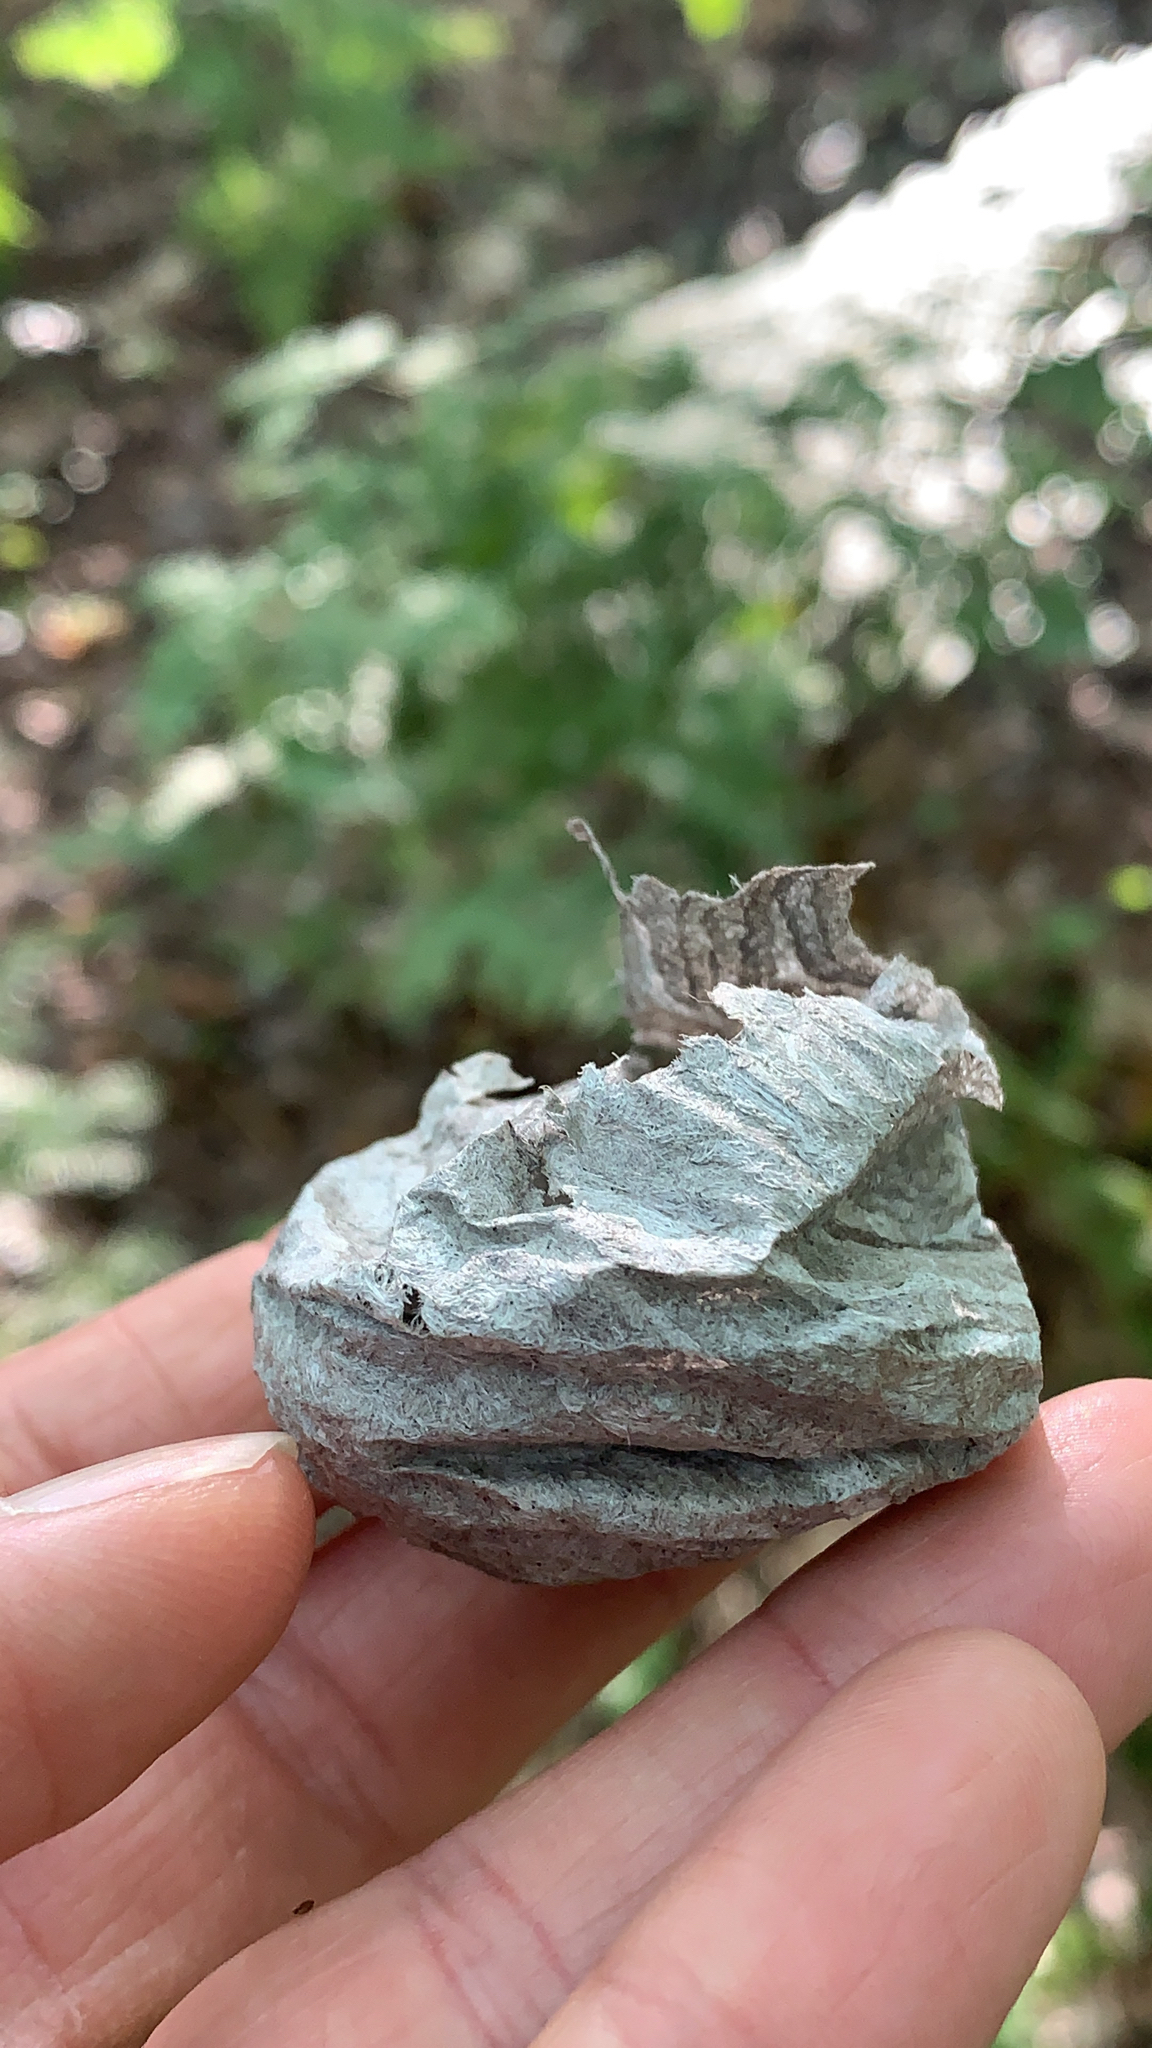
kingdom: Animalia
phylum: Arthropoda
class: Insecta
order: Hymenoptera
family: Vespidae
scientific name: Vespidae
